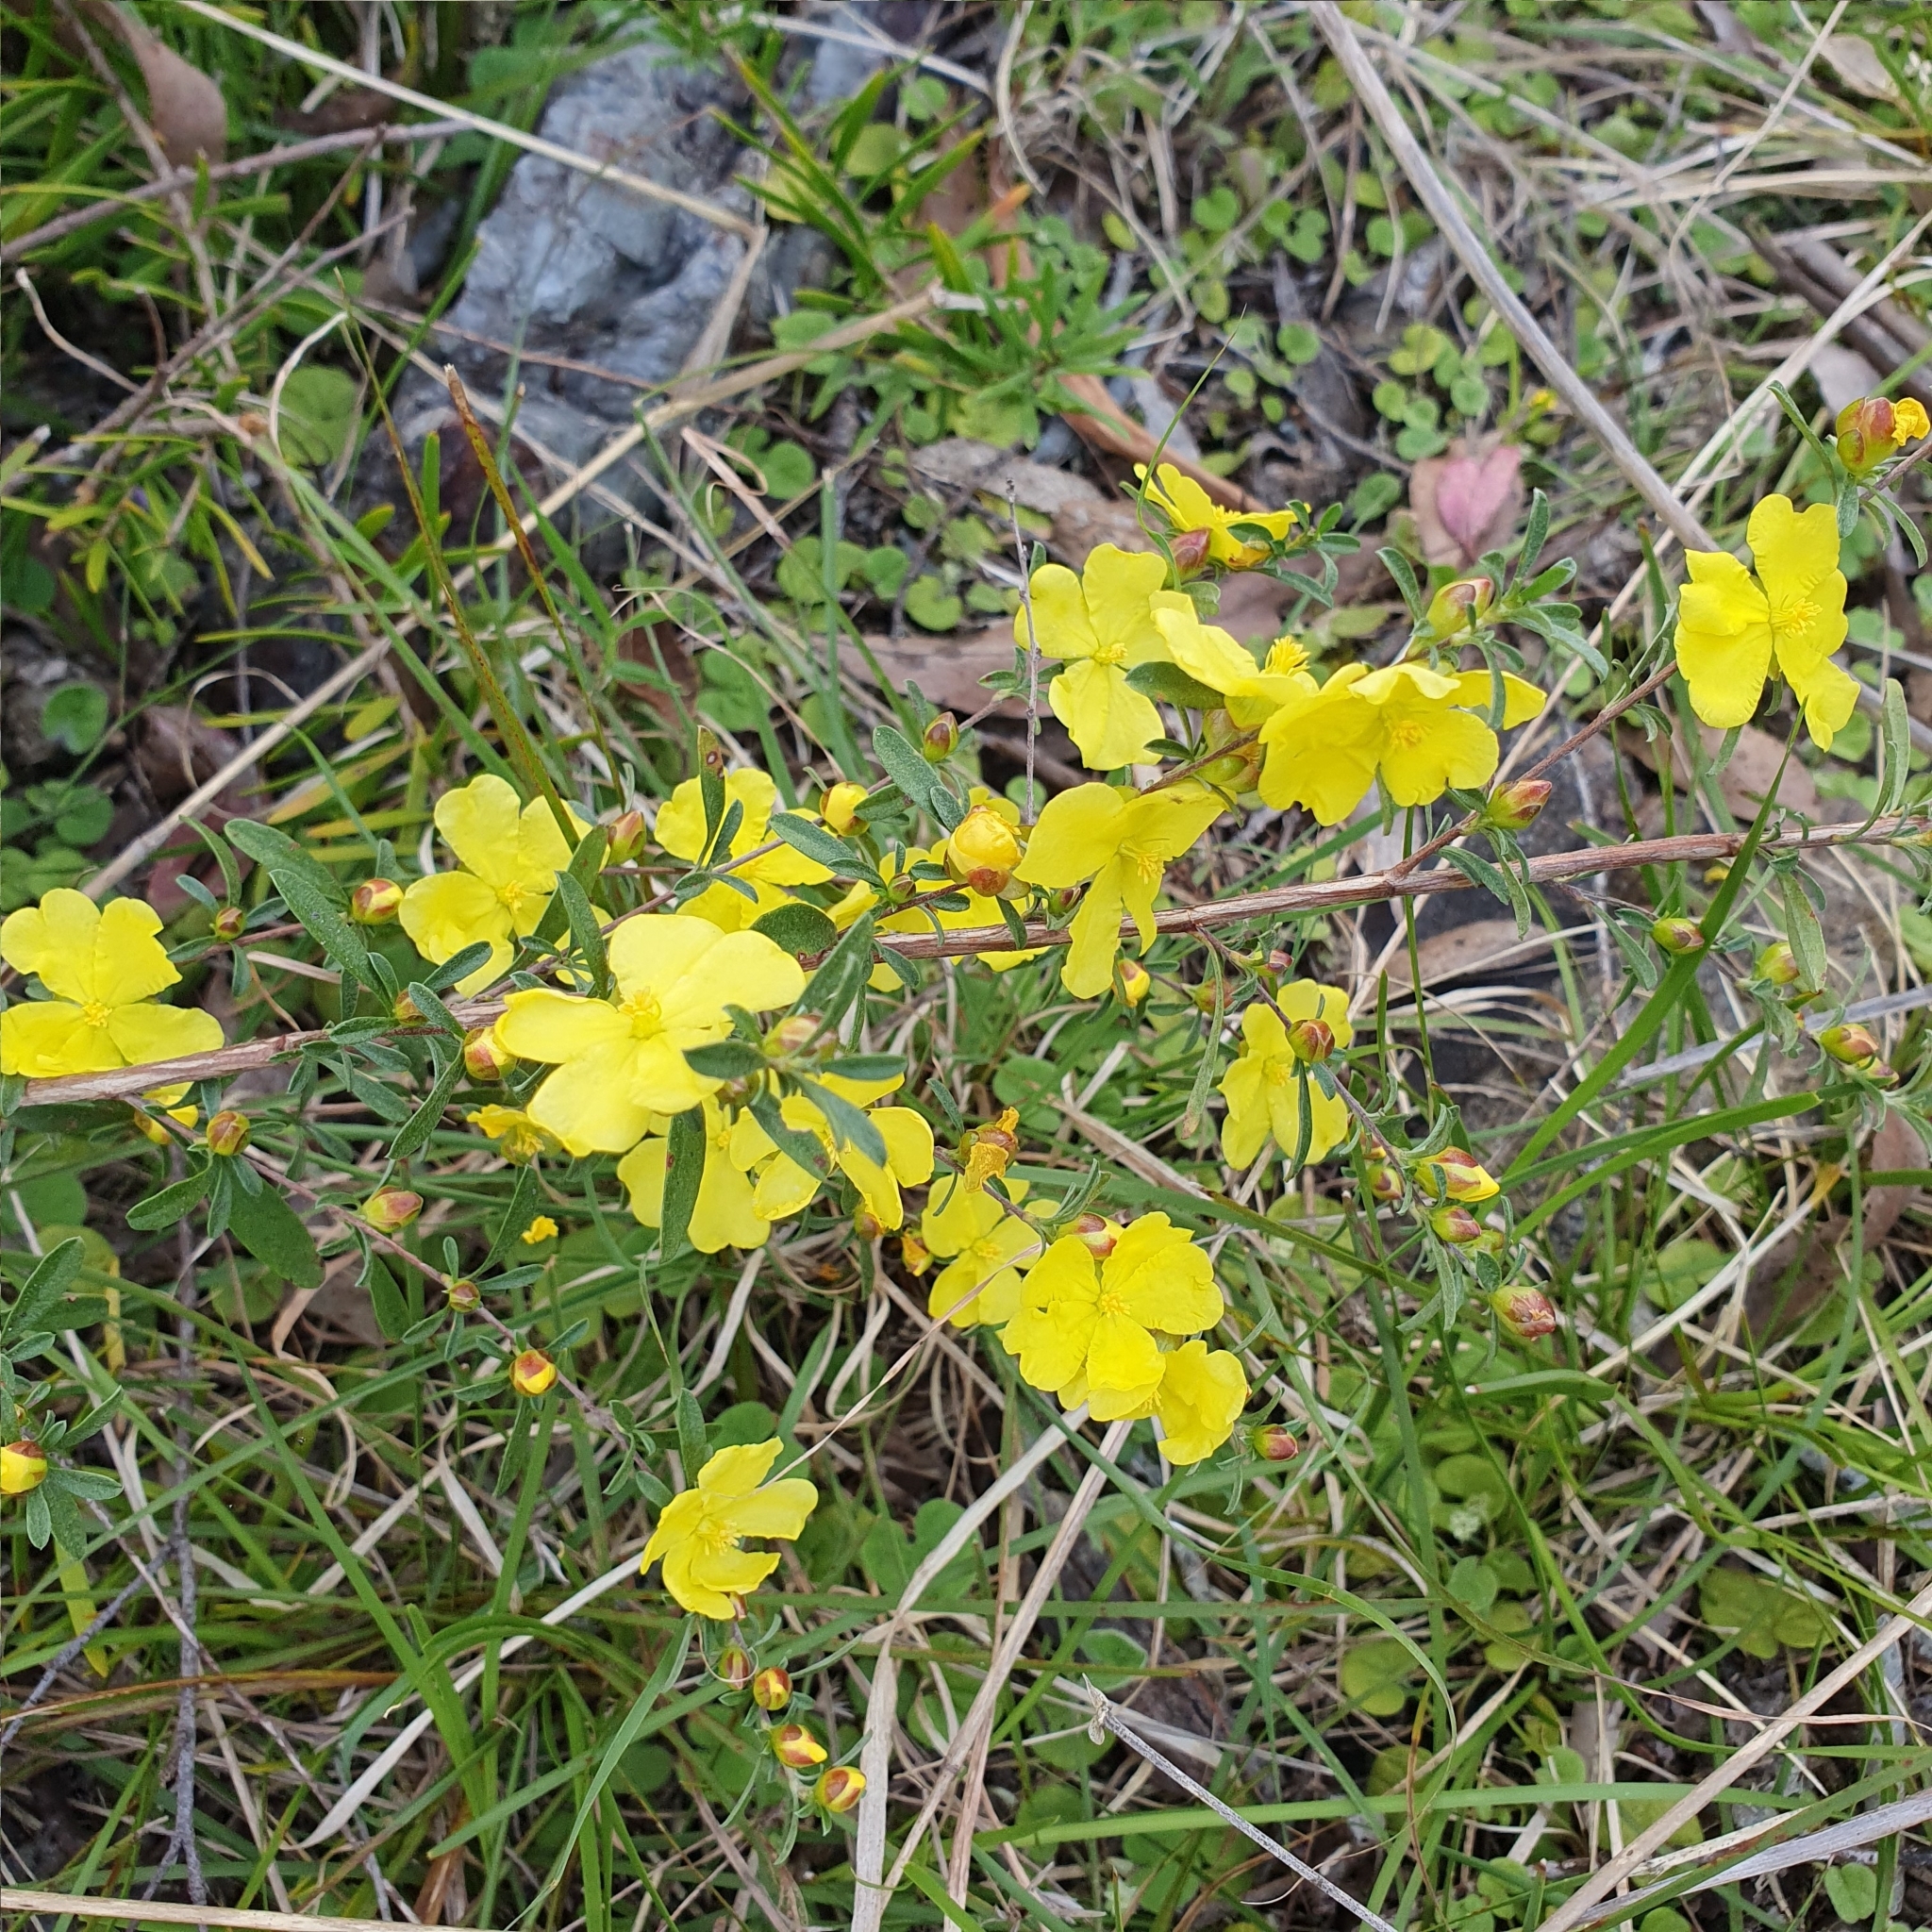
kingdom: Plantae
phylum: Tracheophyta
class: Magnoliopsida
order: Dilleniales
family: Dilleniaceae
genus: Hibbertia
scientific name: Hibbertia obtusifolia
